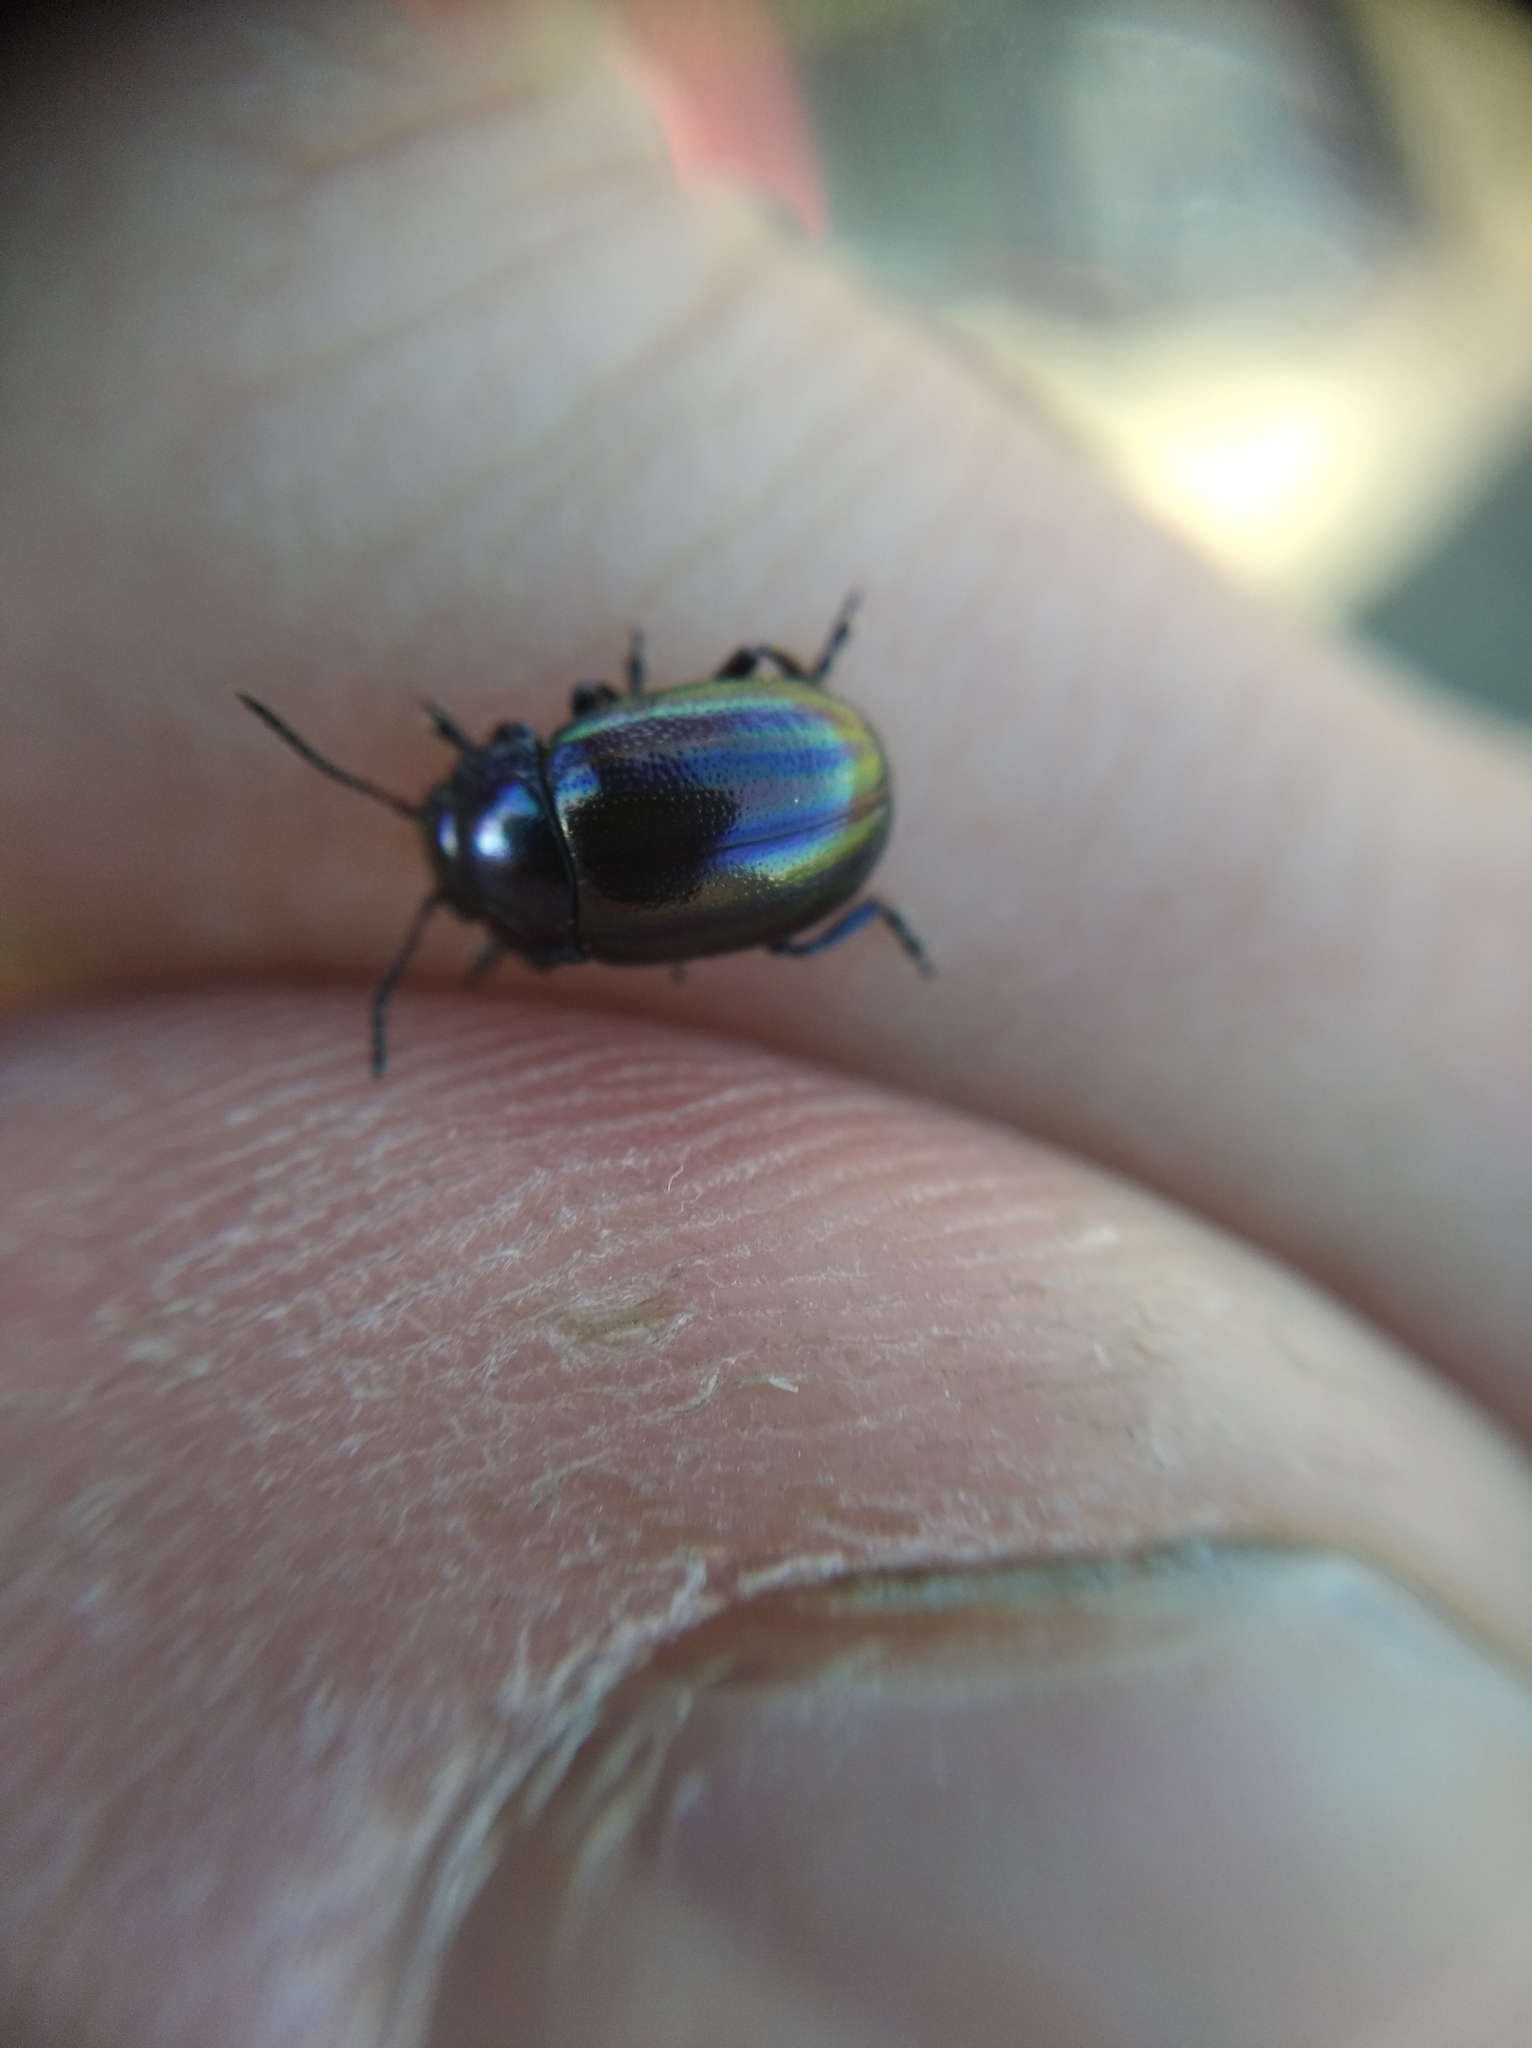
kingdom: Animalia
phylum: Arthropoda
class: Insecta
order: Coleoptera
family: Chrysomelidae
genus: Chrysolina
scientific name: Chrysolina cerealis
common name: Rainbow leaf beetle
